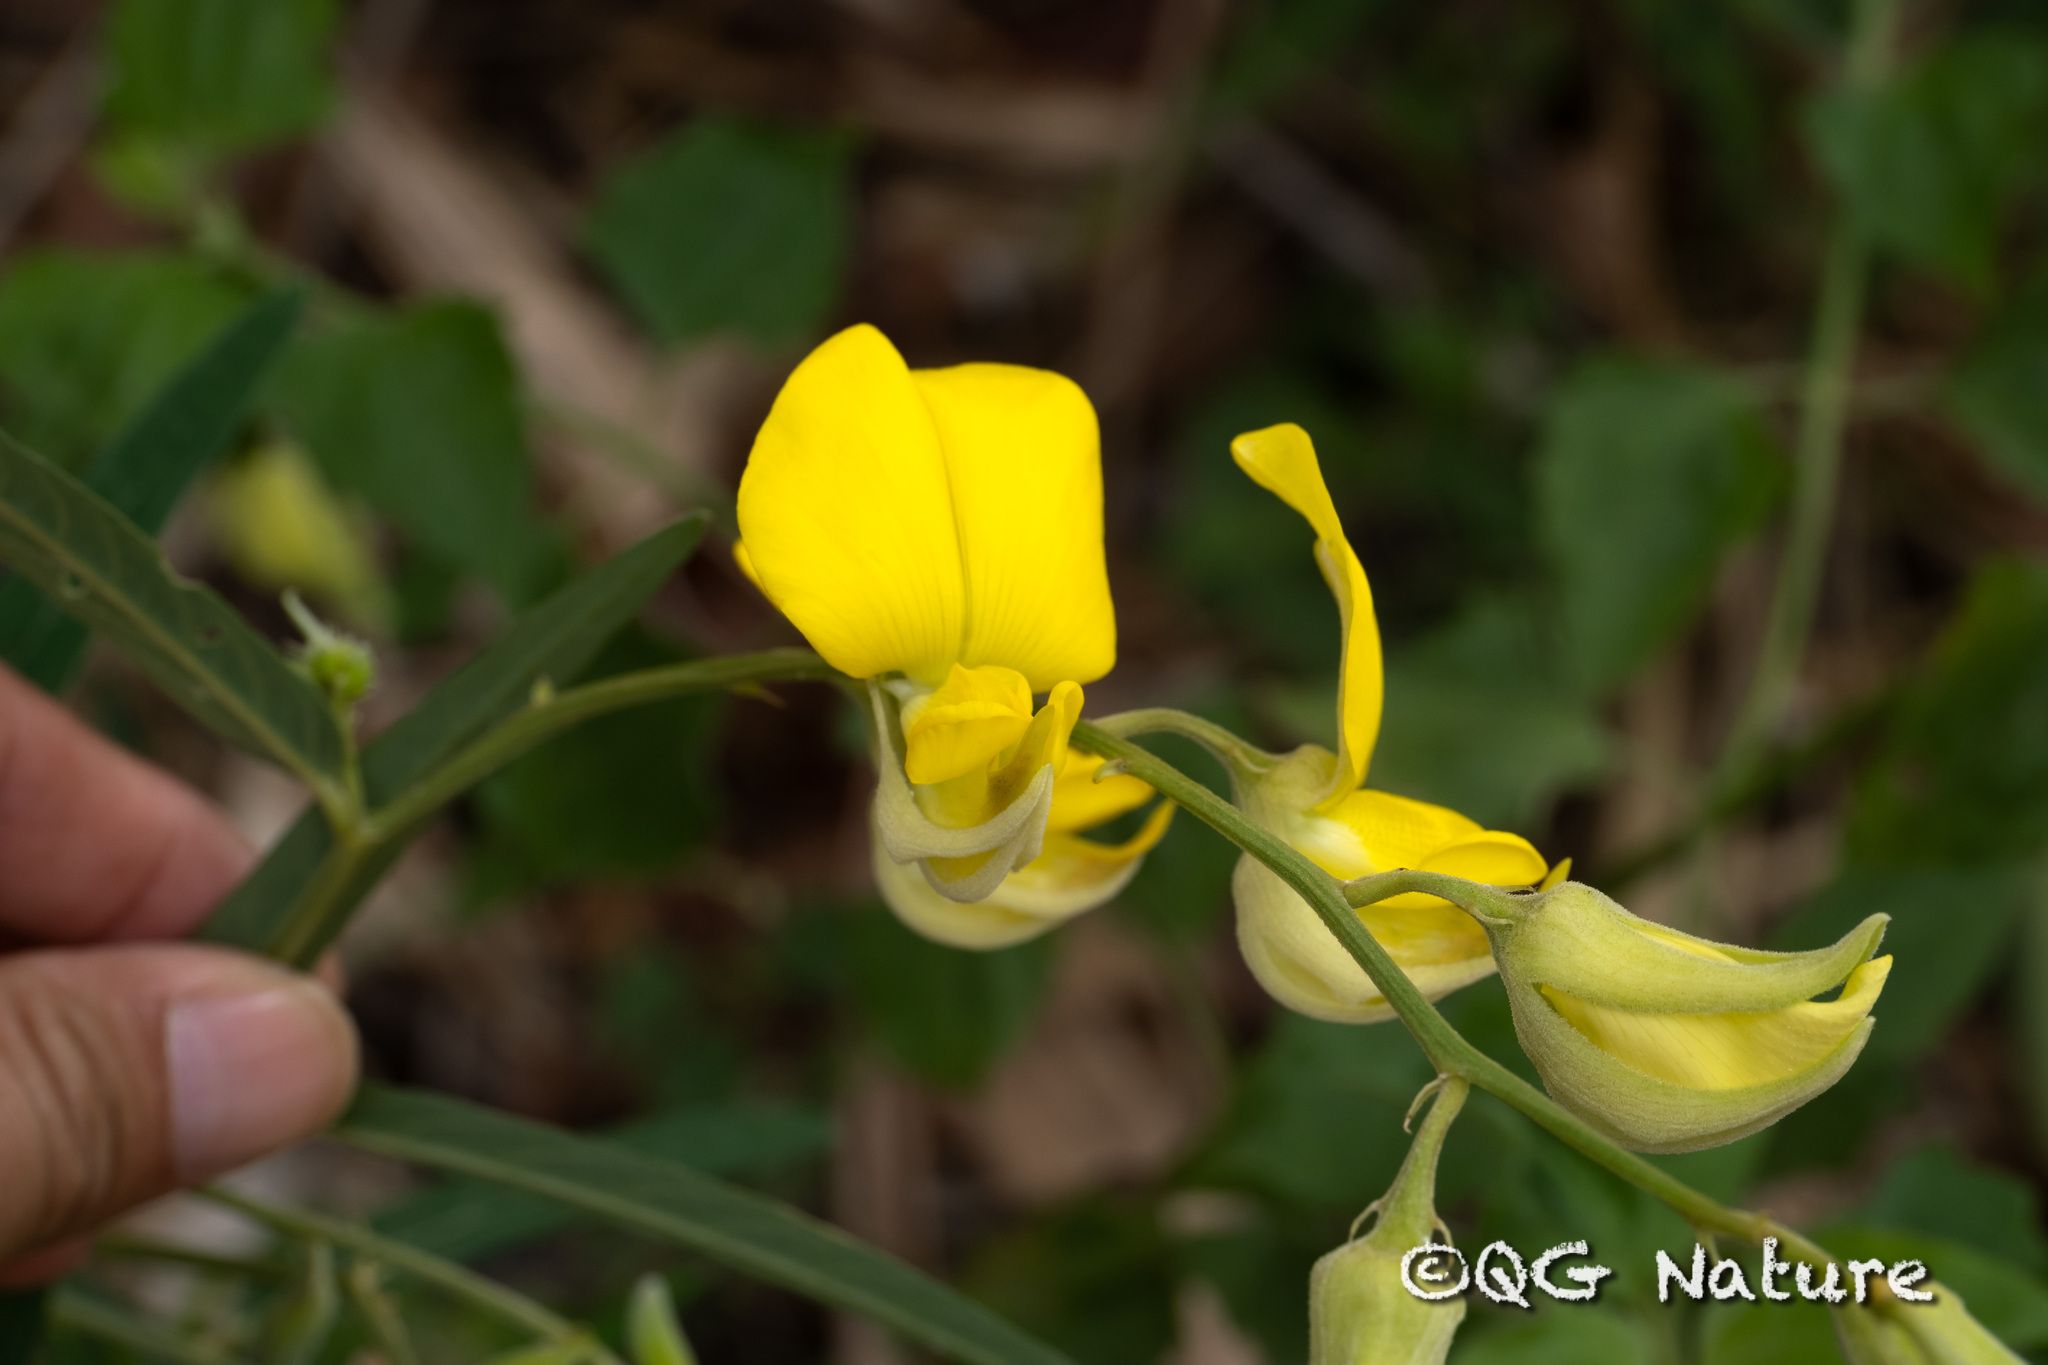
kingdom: Plantae
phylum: Tracheophyta
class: Magnoliopsida
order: Fabales
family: Fabaceae
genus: Crotalaria
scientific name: Crotalaria juncea
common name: Sunn hemp
